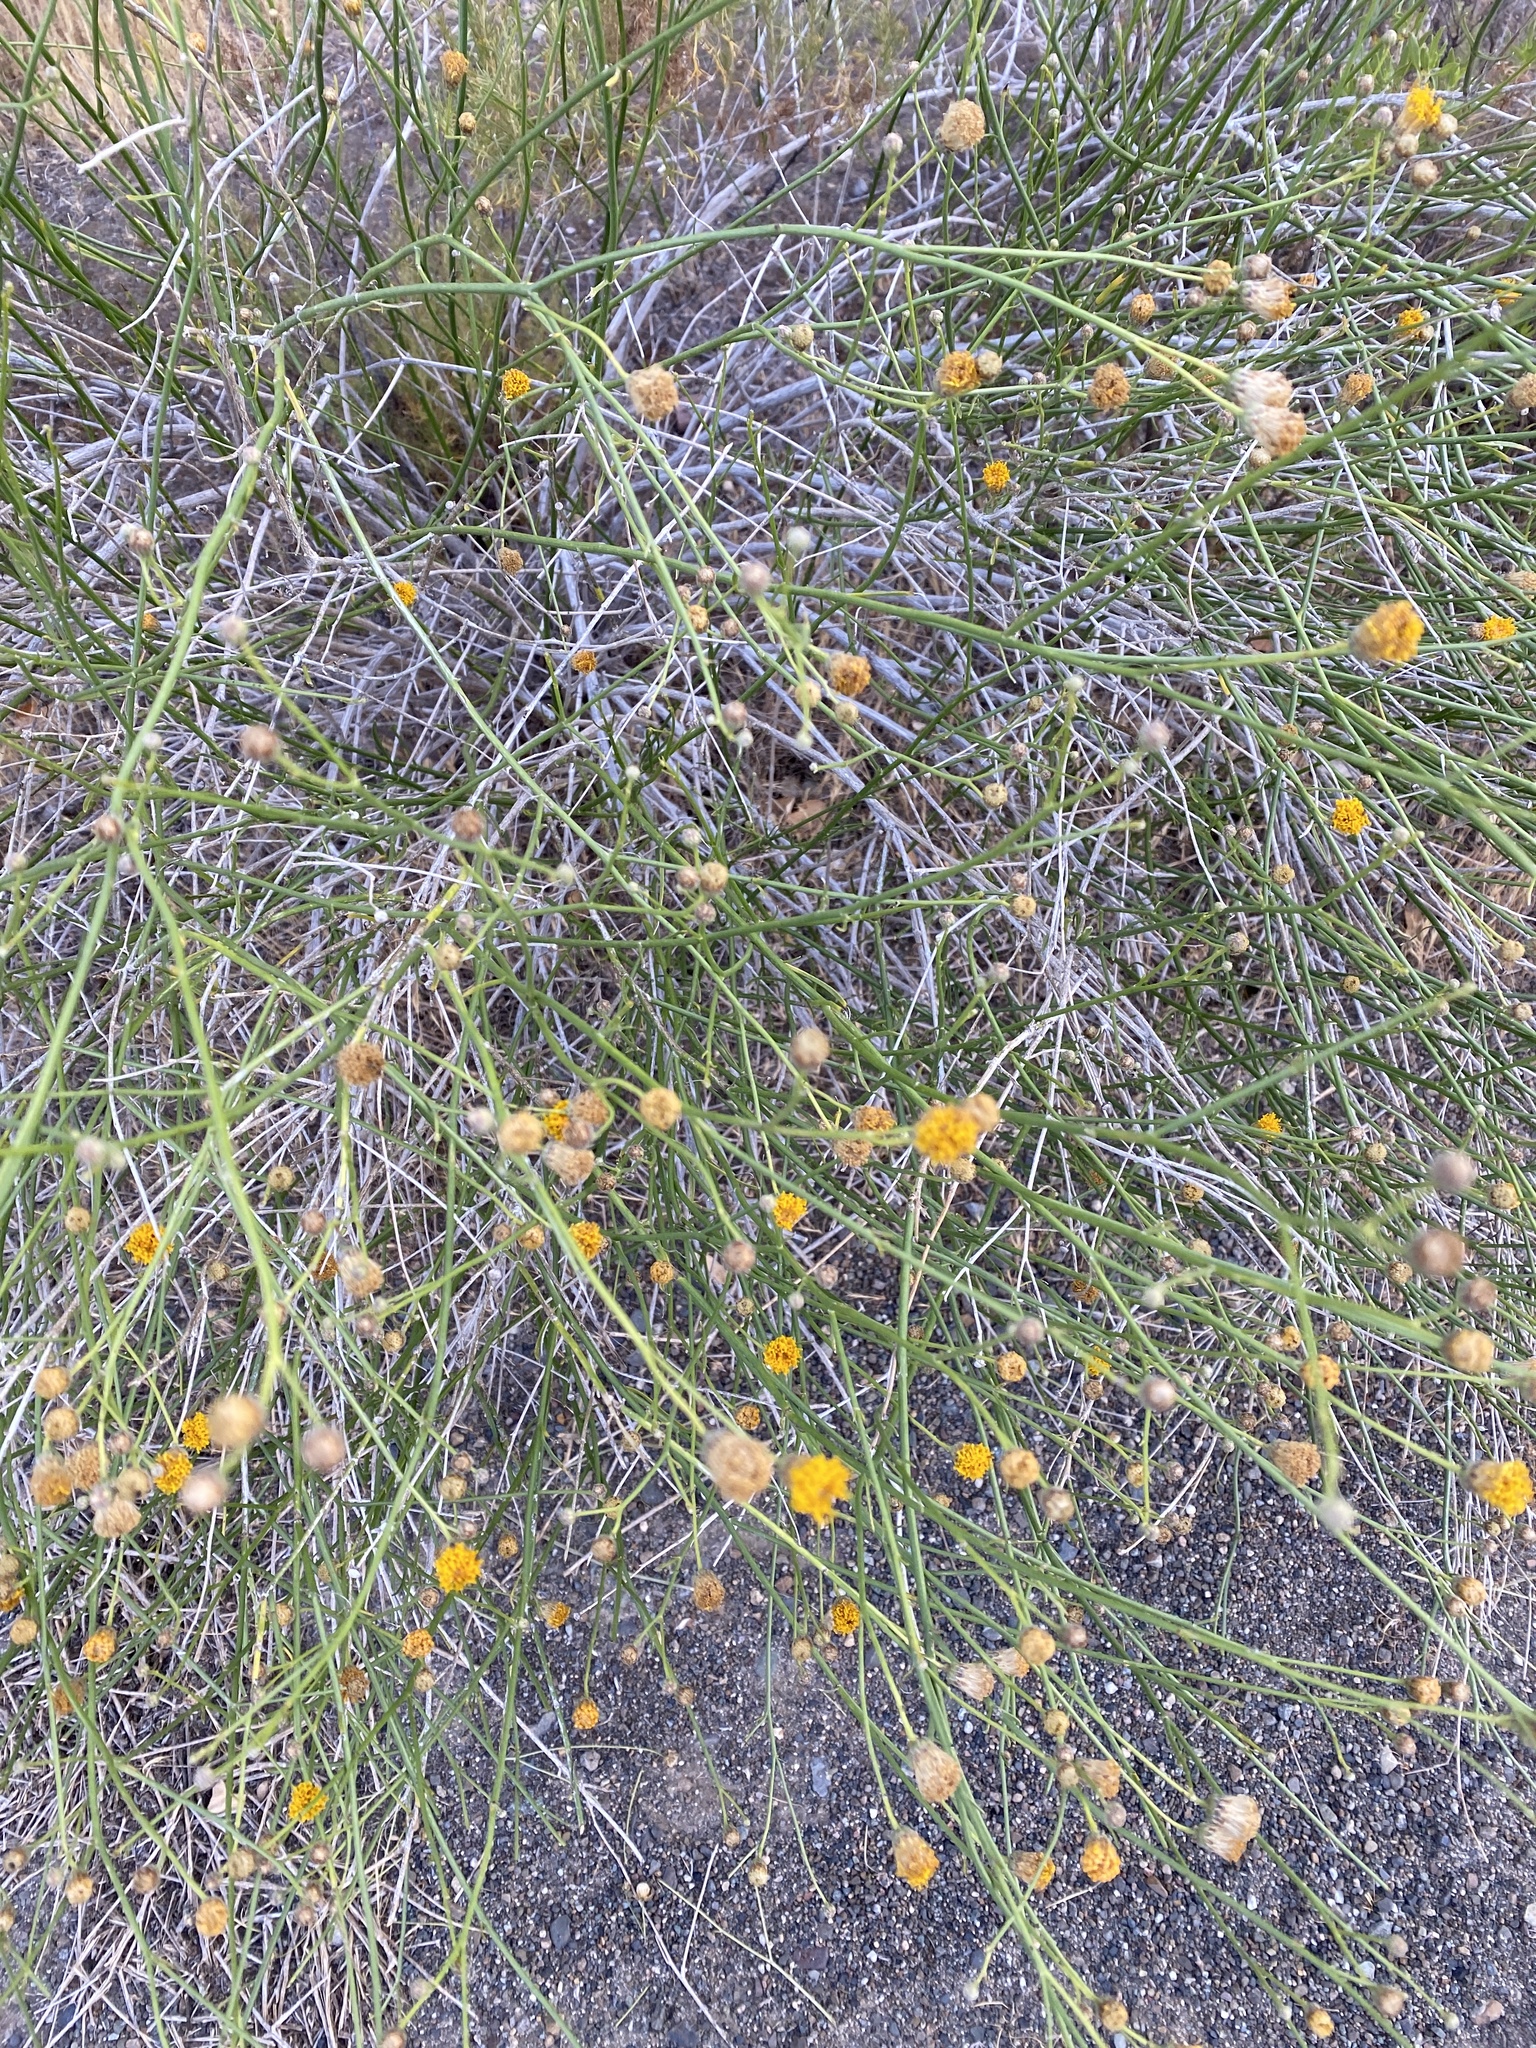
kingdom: Plantae
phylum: Tracheophyta
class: Magnoliopsida
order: Asterales
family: Asteraceae
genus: Bebbia
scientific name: Bebbia juncea
